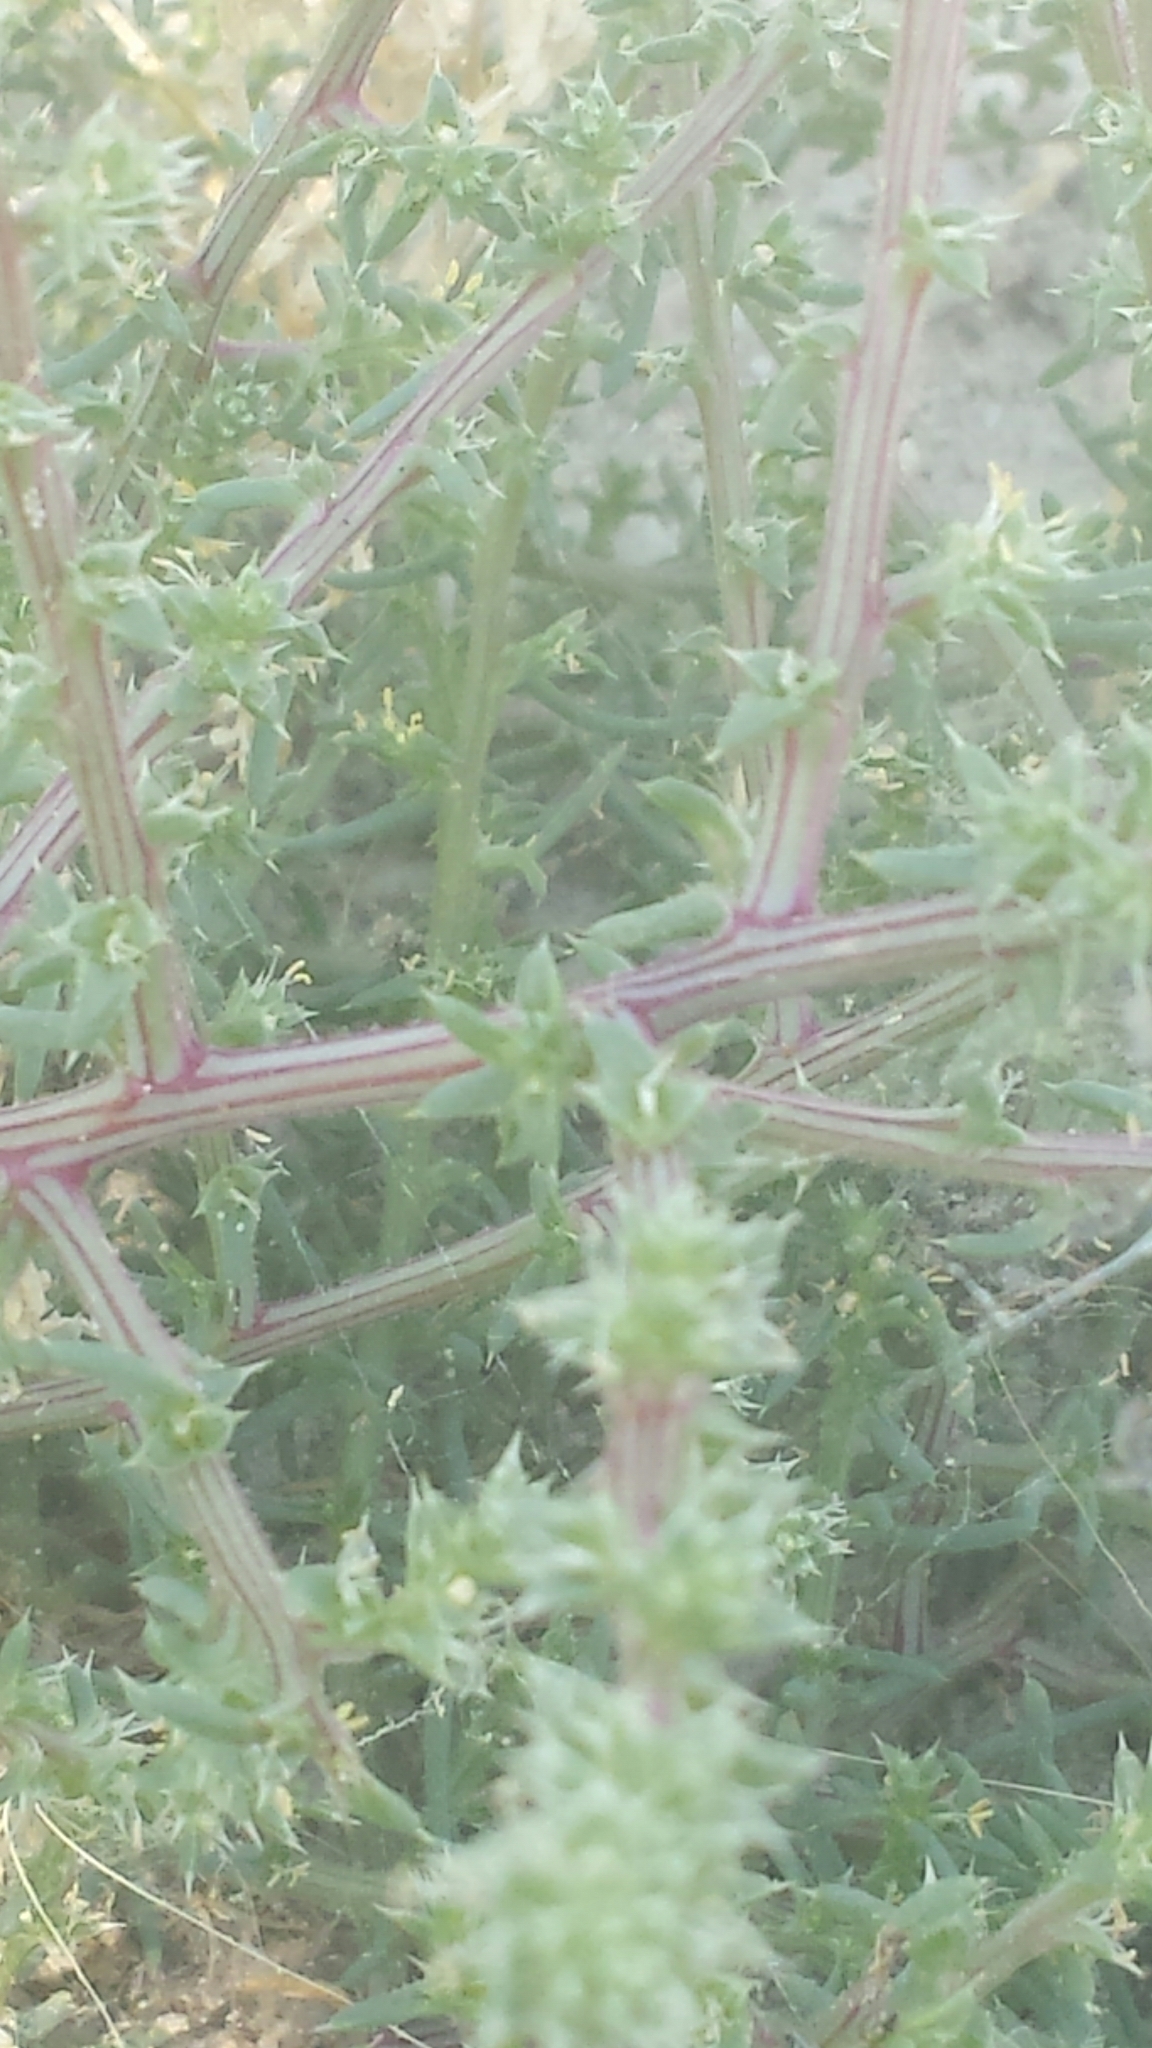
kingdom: Plantae
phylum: Tracheophyta
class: Magnoliopsida
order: Caryophyllales
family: Amaranthaceae
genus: Salsola
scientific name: Salsola kali
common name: Saltwort
